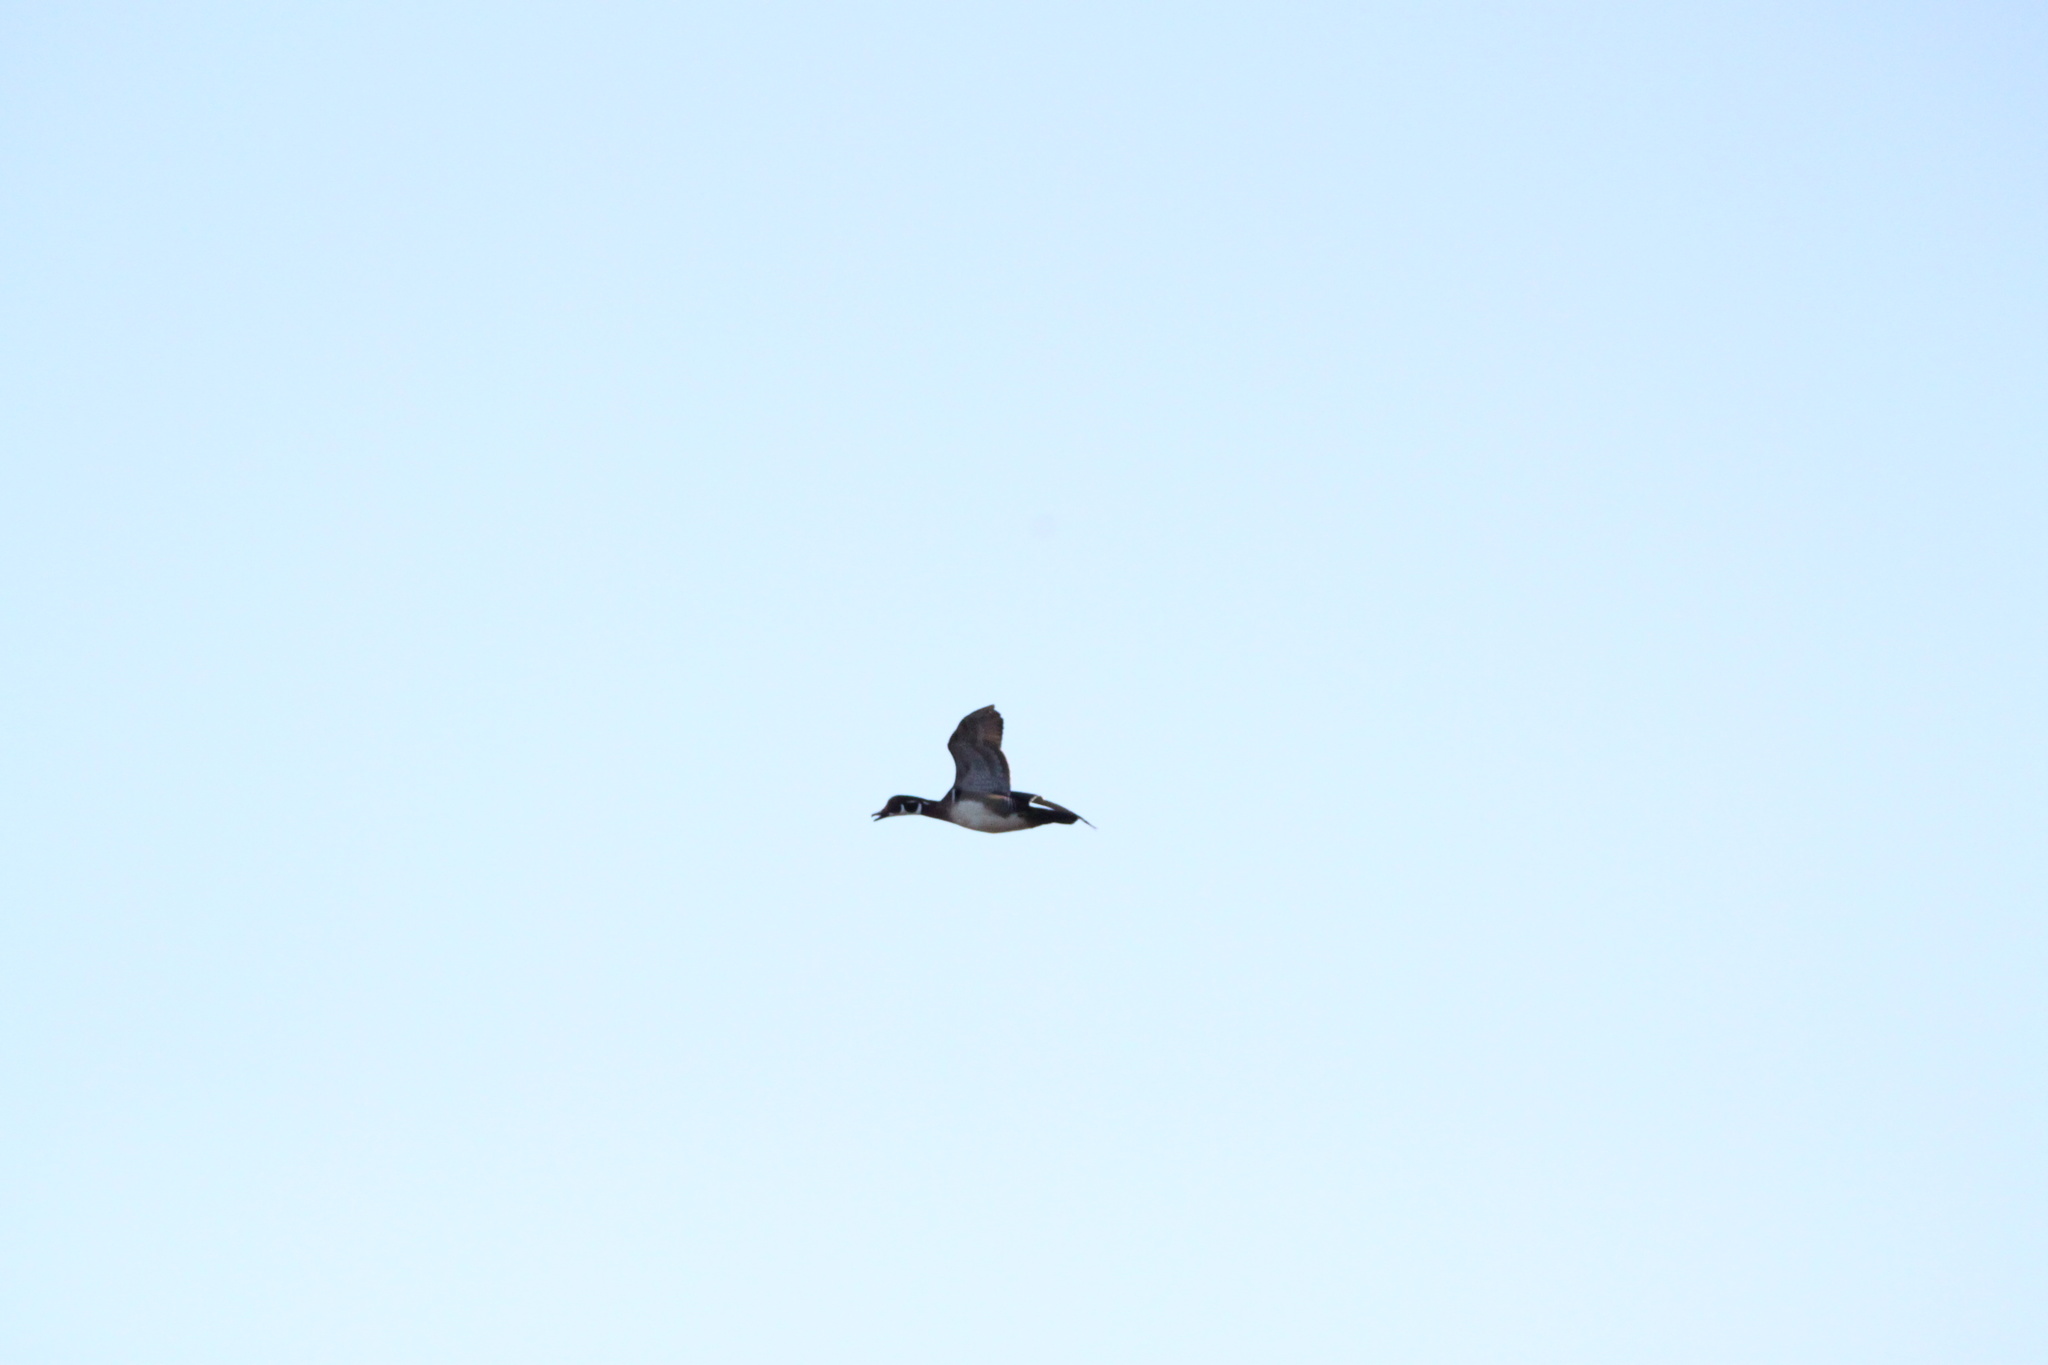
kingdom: Animalia
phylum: Chordata
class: Aves
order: Anseriformes
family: Anatidae
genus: Aix
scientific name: Aix sponsa
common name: Wood duck
